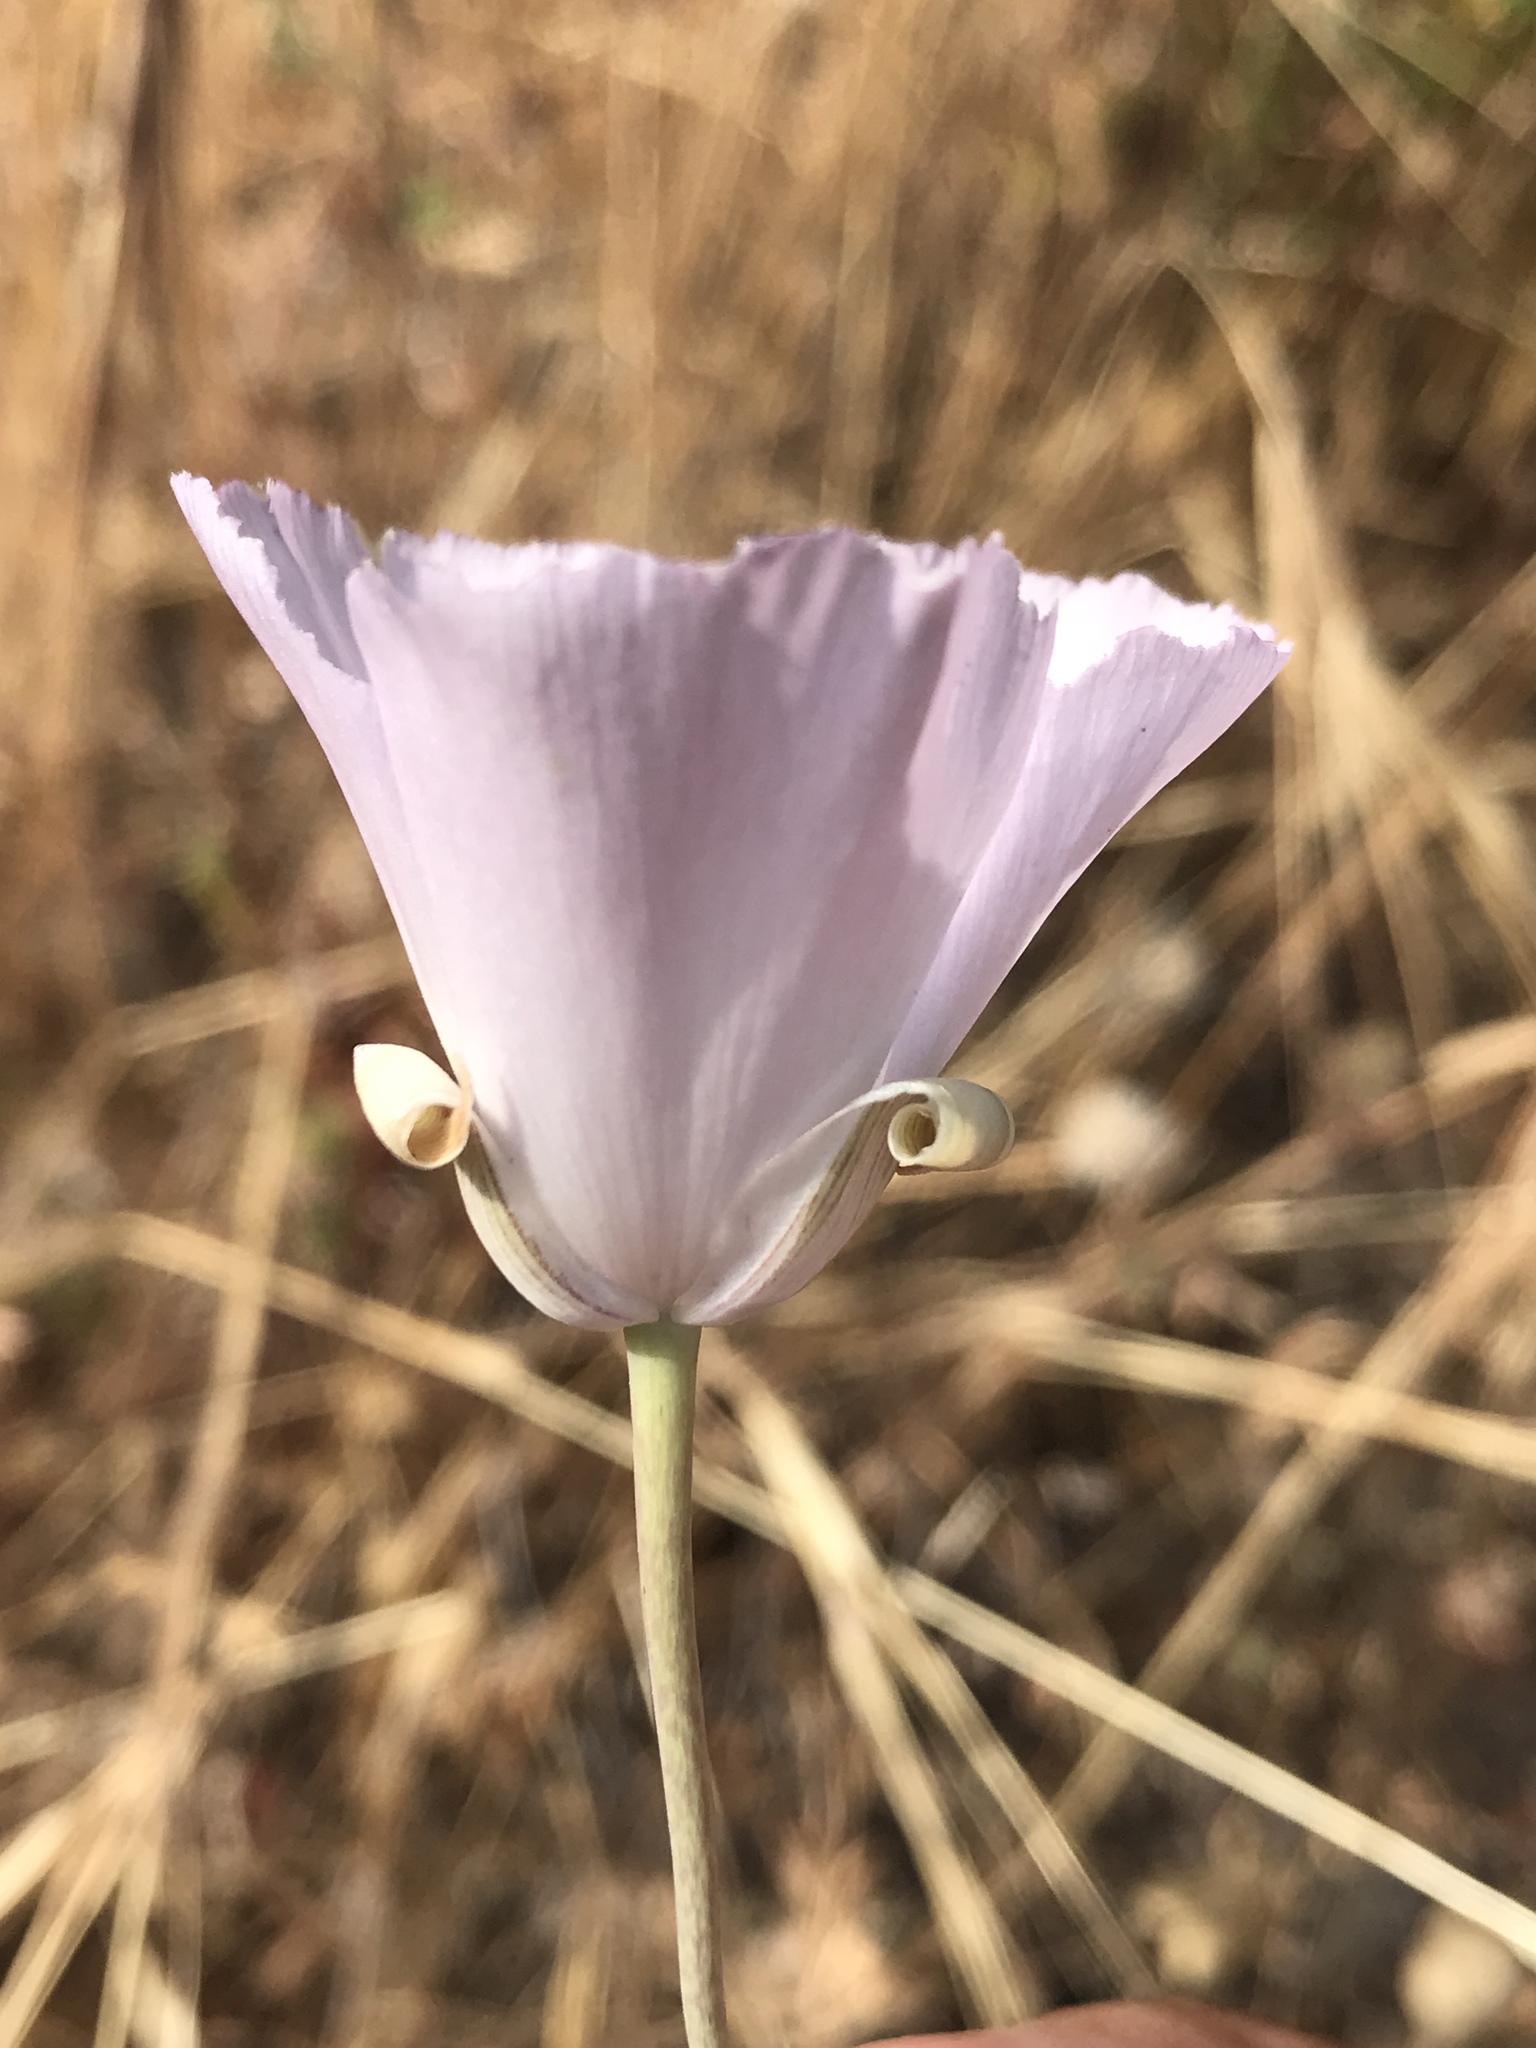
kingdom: Plantae
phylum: Tracheophyta
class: Liliopsida
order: Liliales
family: Liliaceae
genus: Calochortus
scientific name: Calochortus splendens
